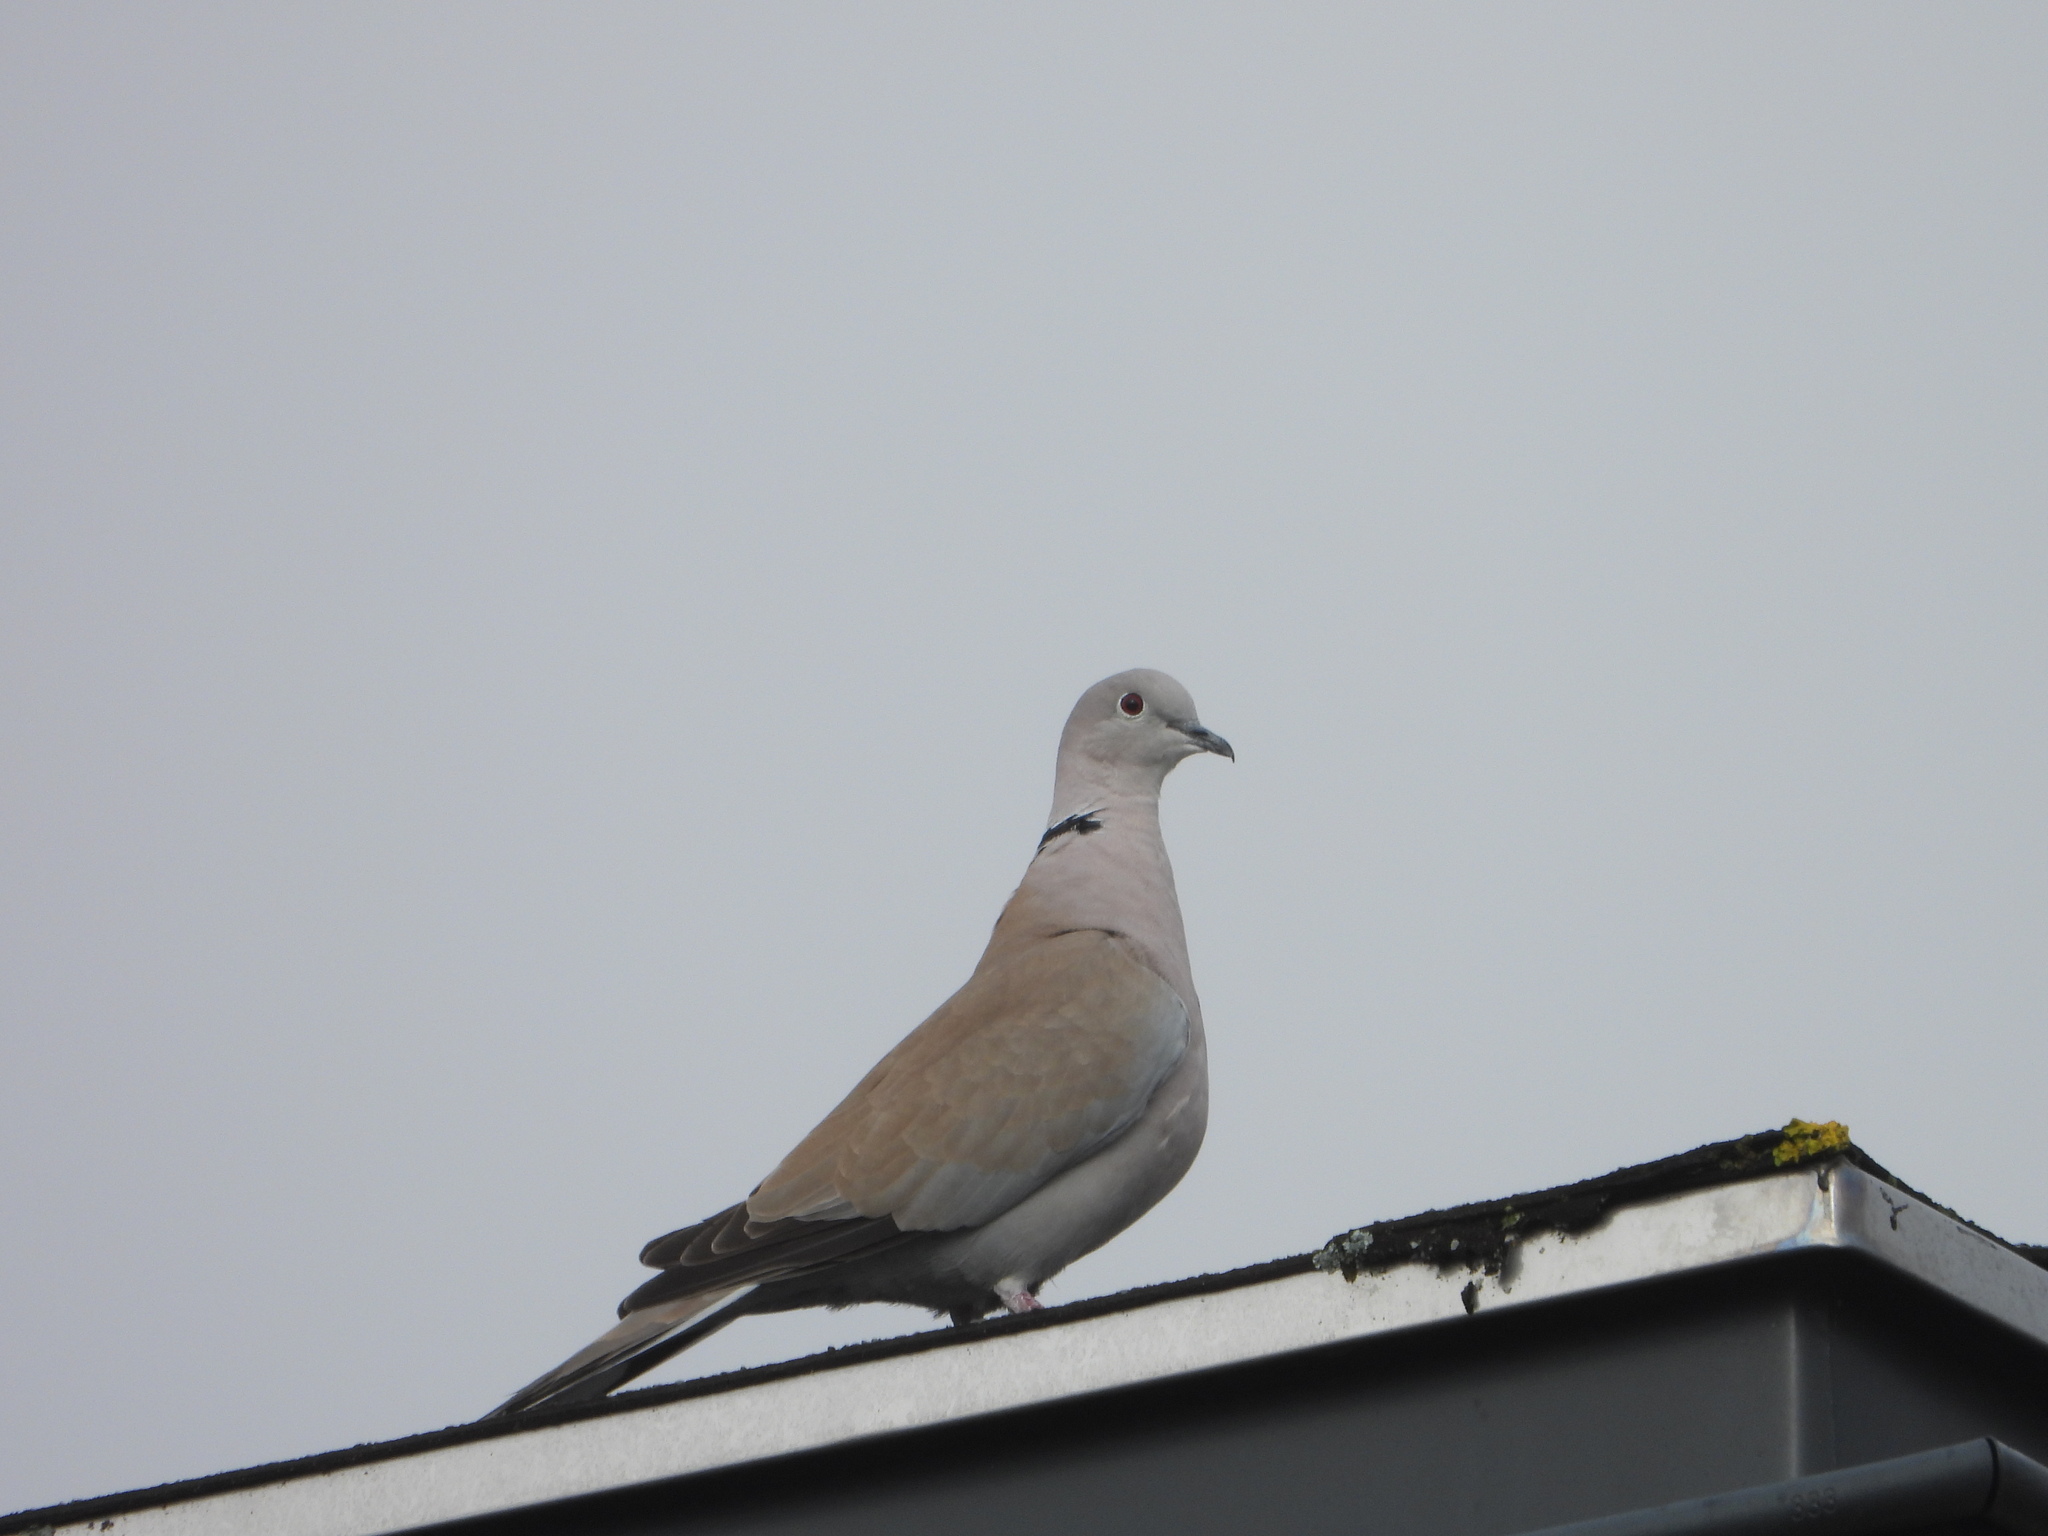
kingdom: Animalia
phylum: Chordata
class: Aves
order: Columbiformes
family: Columbidae
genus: Streptopelia
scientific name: Streptopelia decaocto
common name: Eurasian collared dove
